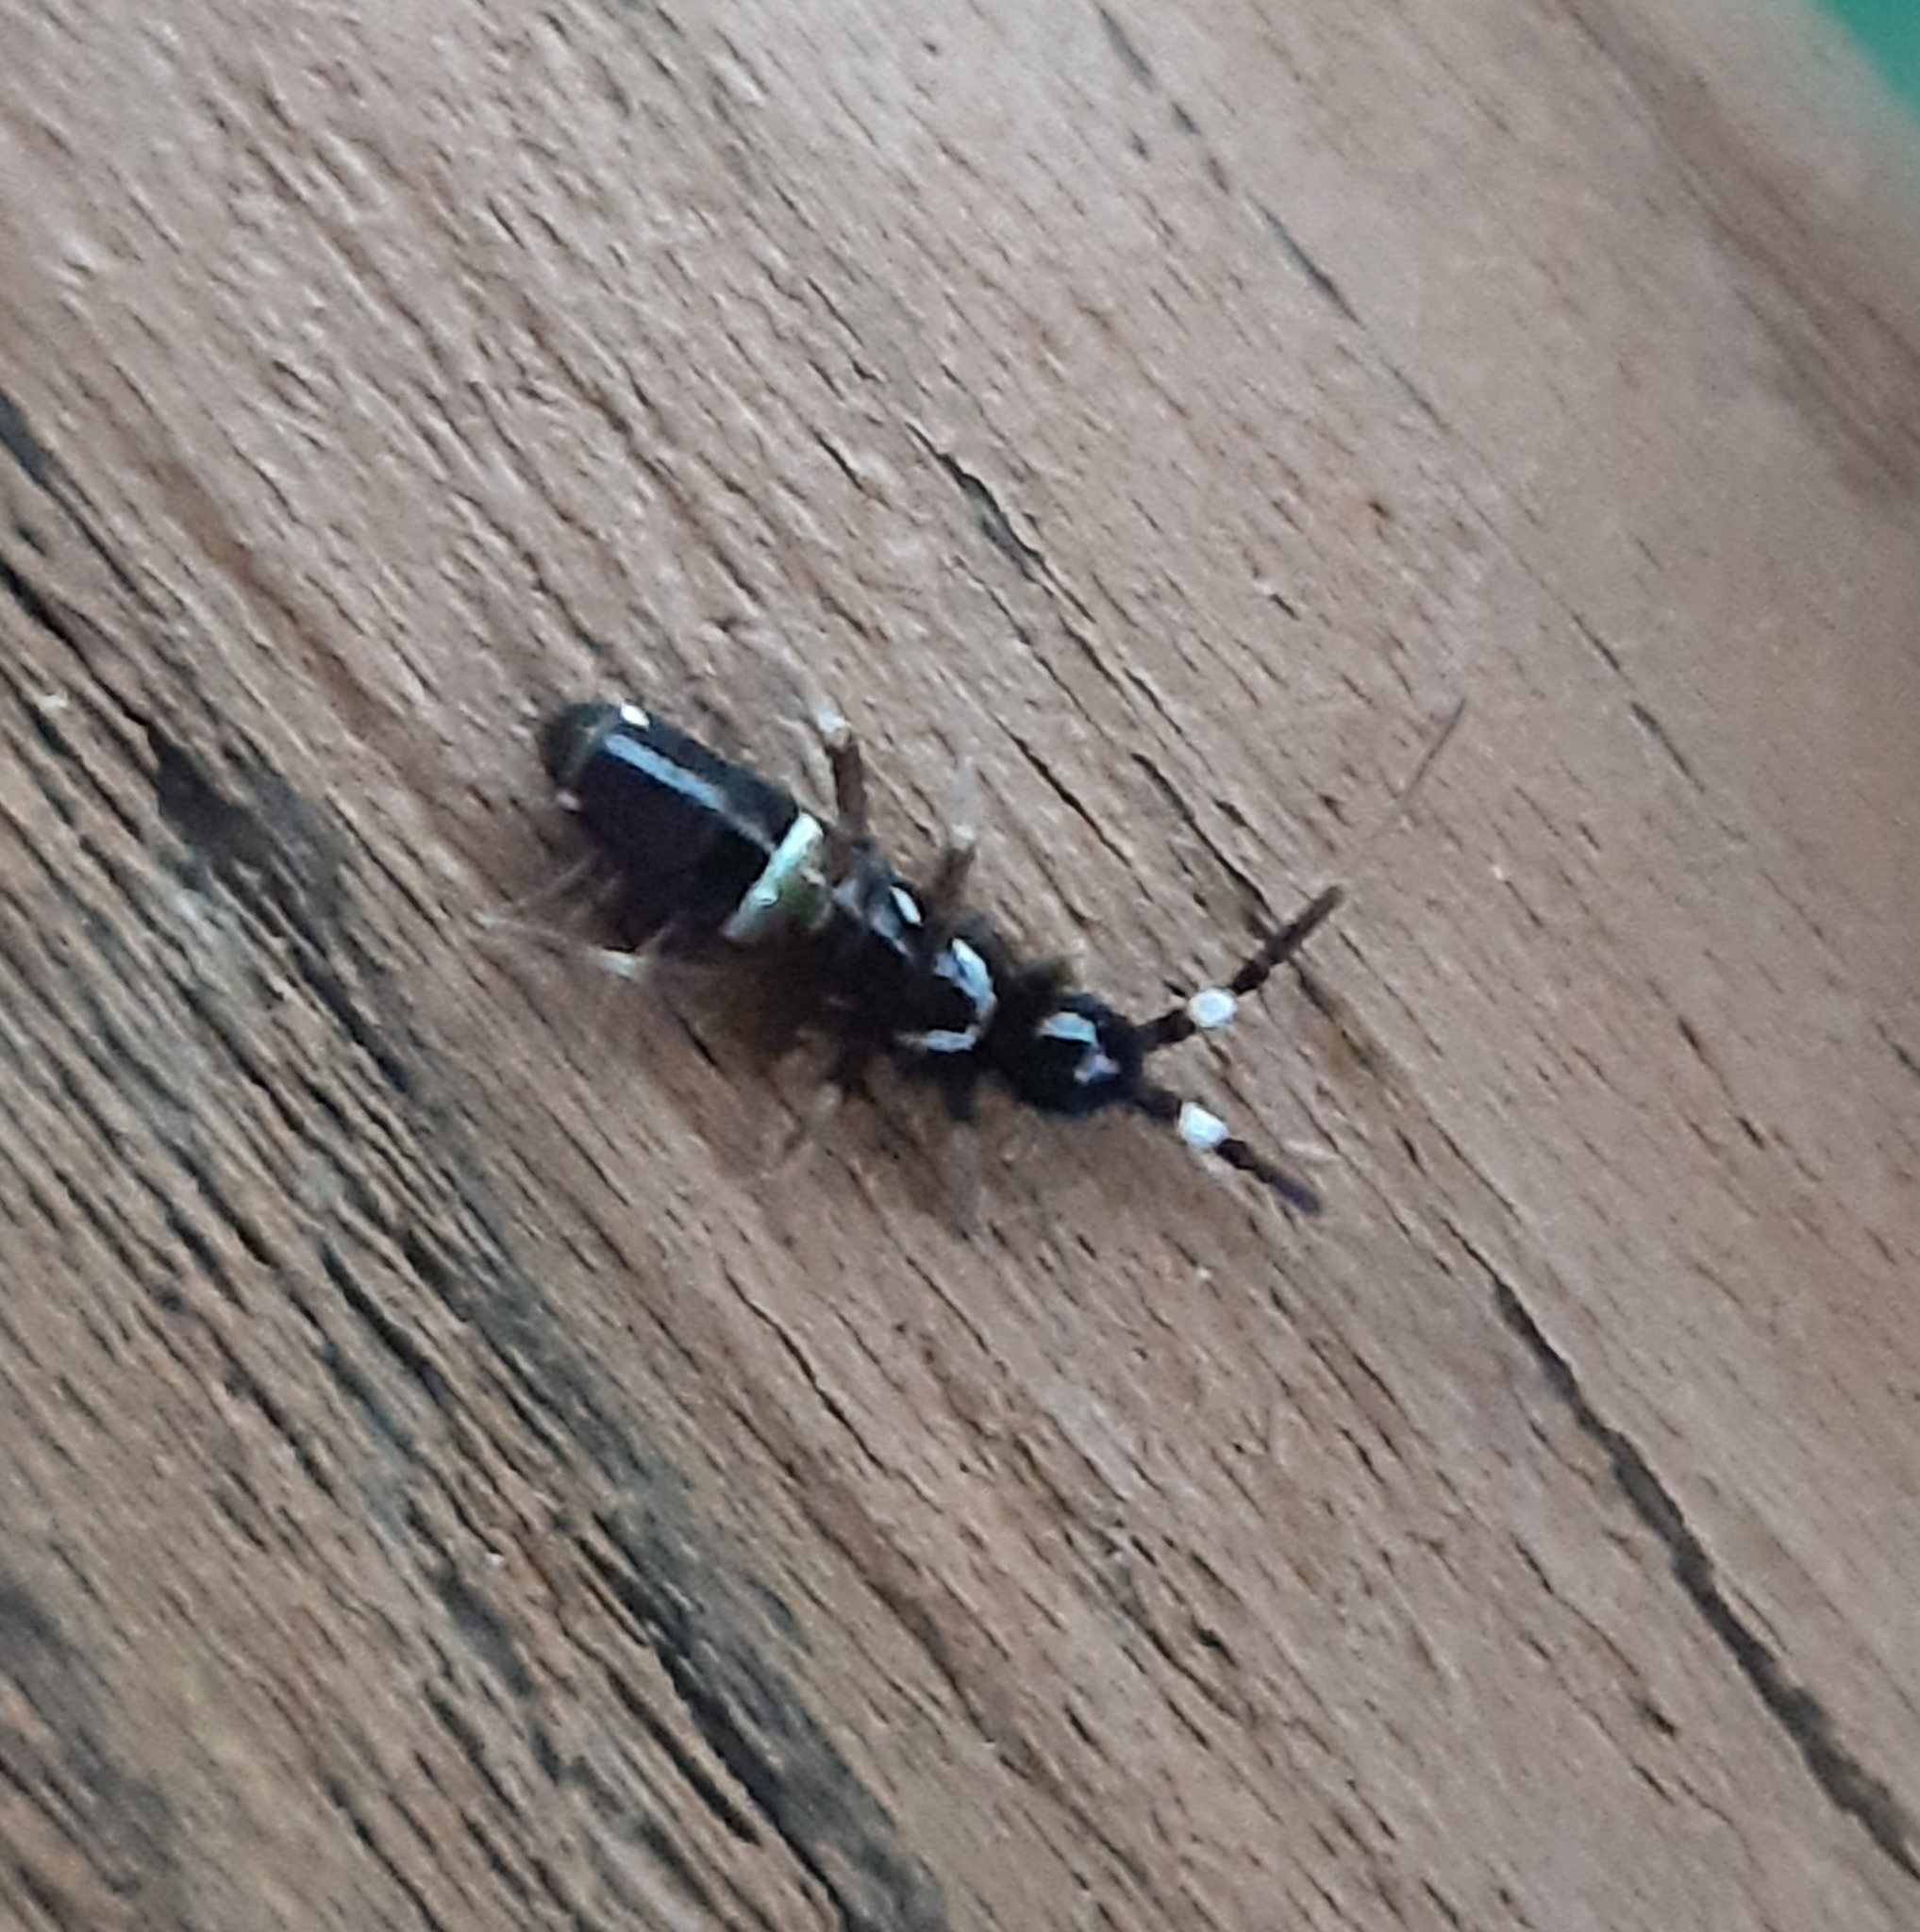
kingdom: Animalia
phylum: Arthropoda
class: Collembola
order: Entomobryomorpha
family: Orchesellidae
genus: Orchesella
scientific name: Orchesella cincta
